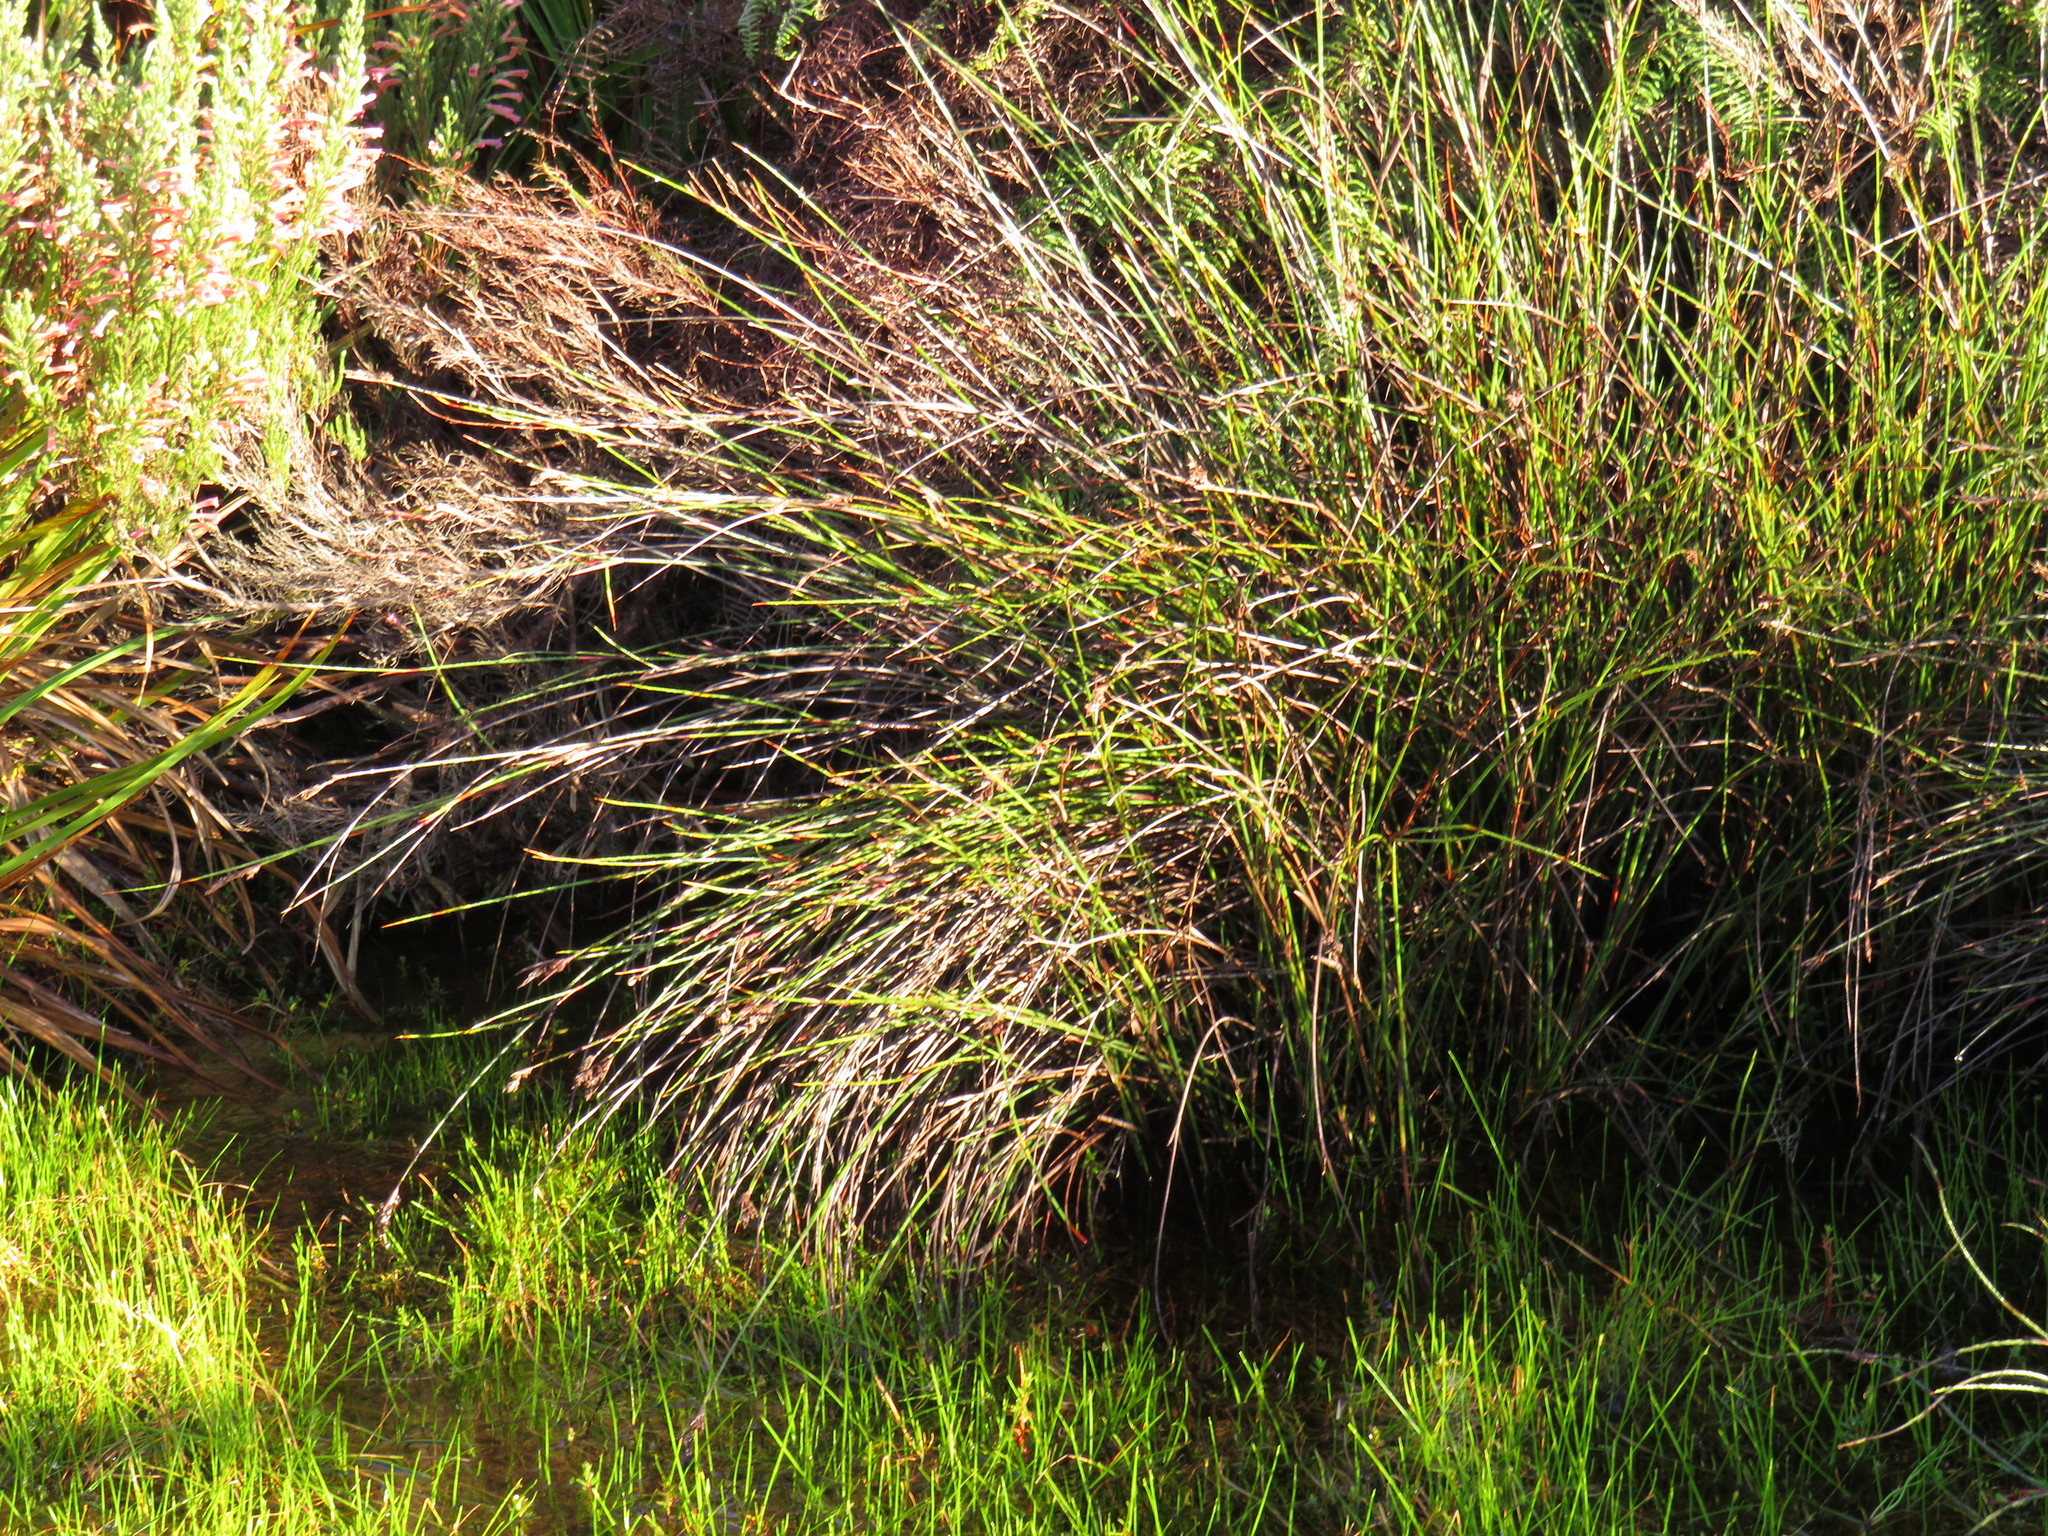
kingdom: Plantae
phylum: Tracheophyta
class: Magnoliopsida
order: Ericales
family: Ericaceae
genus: Erica
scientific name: Erica curviflora
